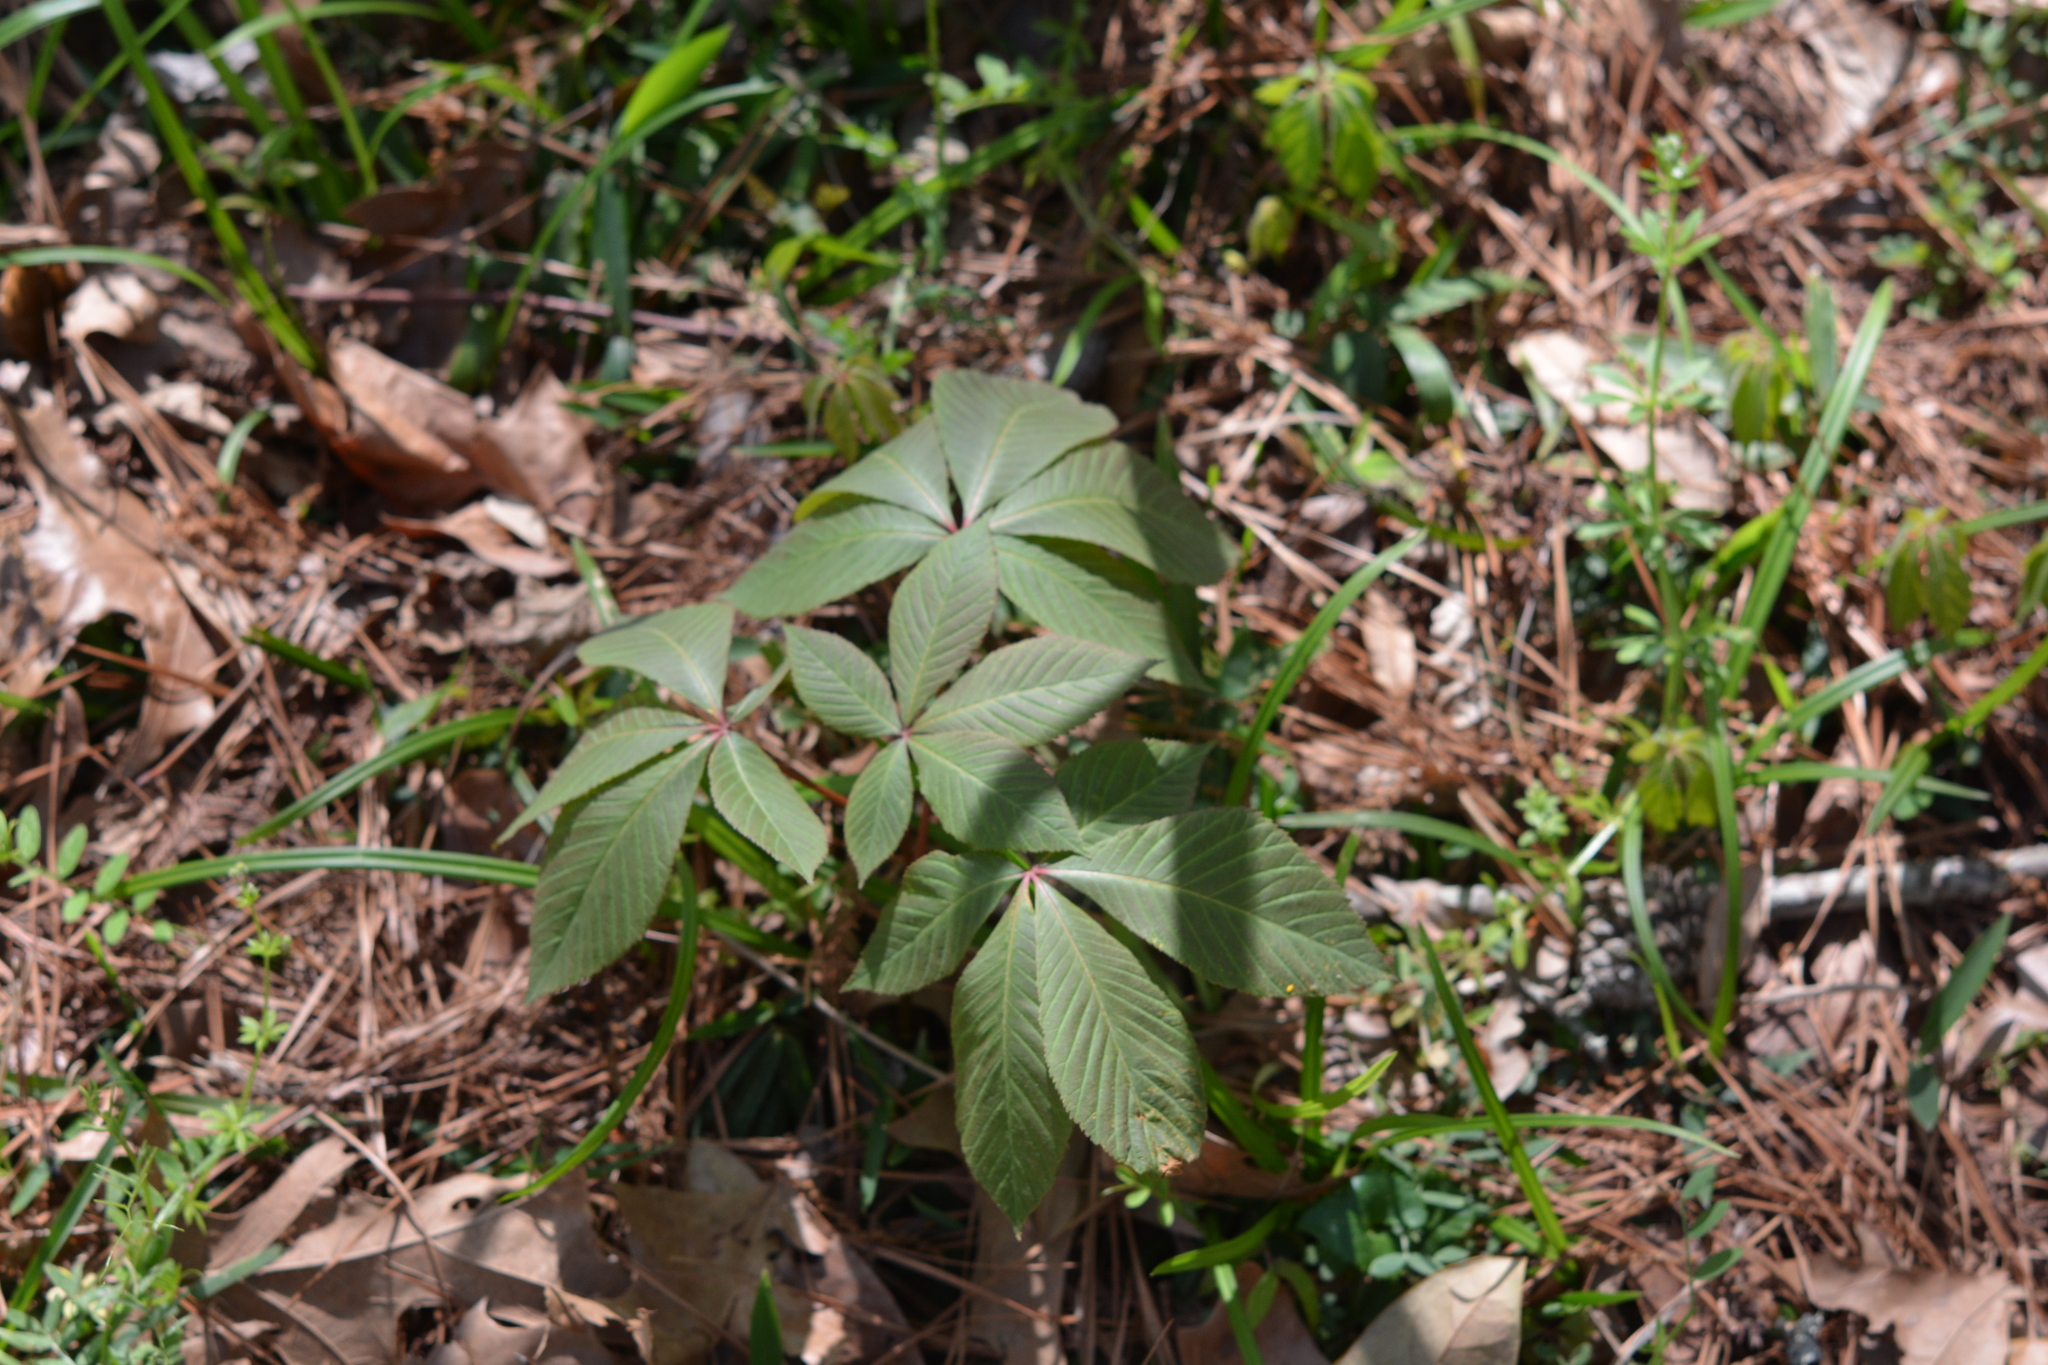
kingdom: Plantae
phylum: Tracheophyta
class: Magnoliopsida
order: Sapindales
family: Sapindaceae
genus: Aesculus
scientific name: Aesculus pavia
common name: Red buckeye
